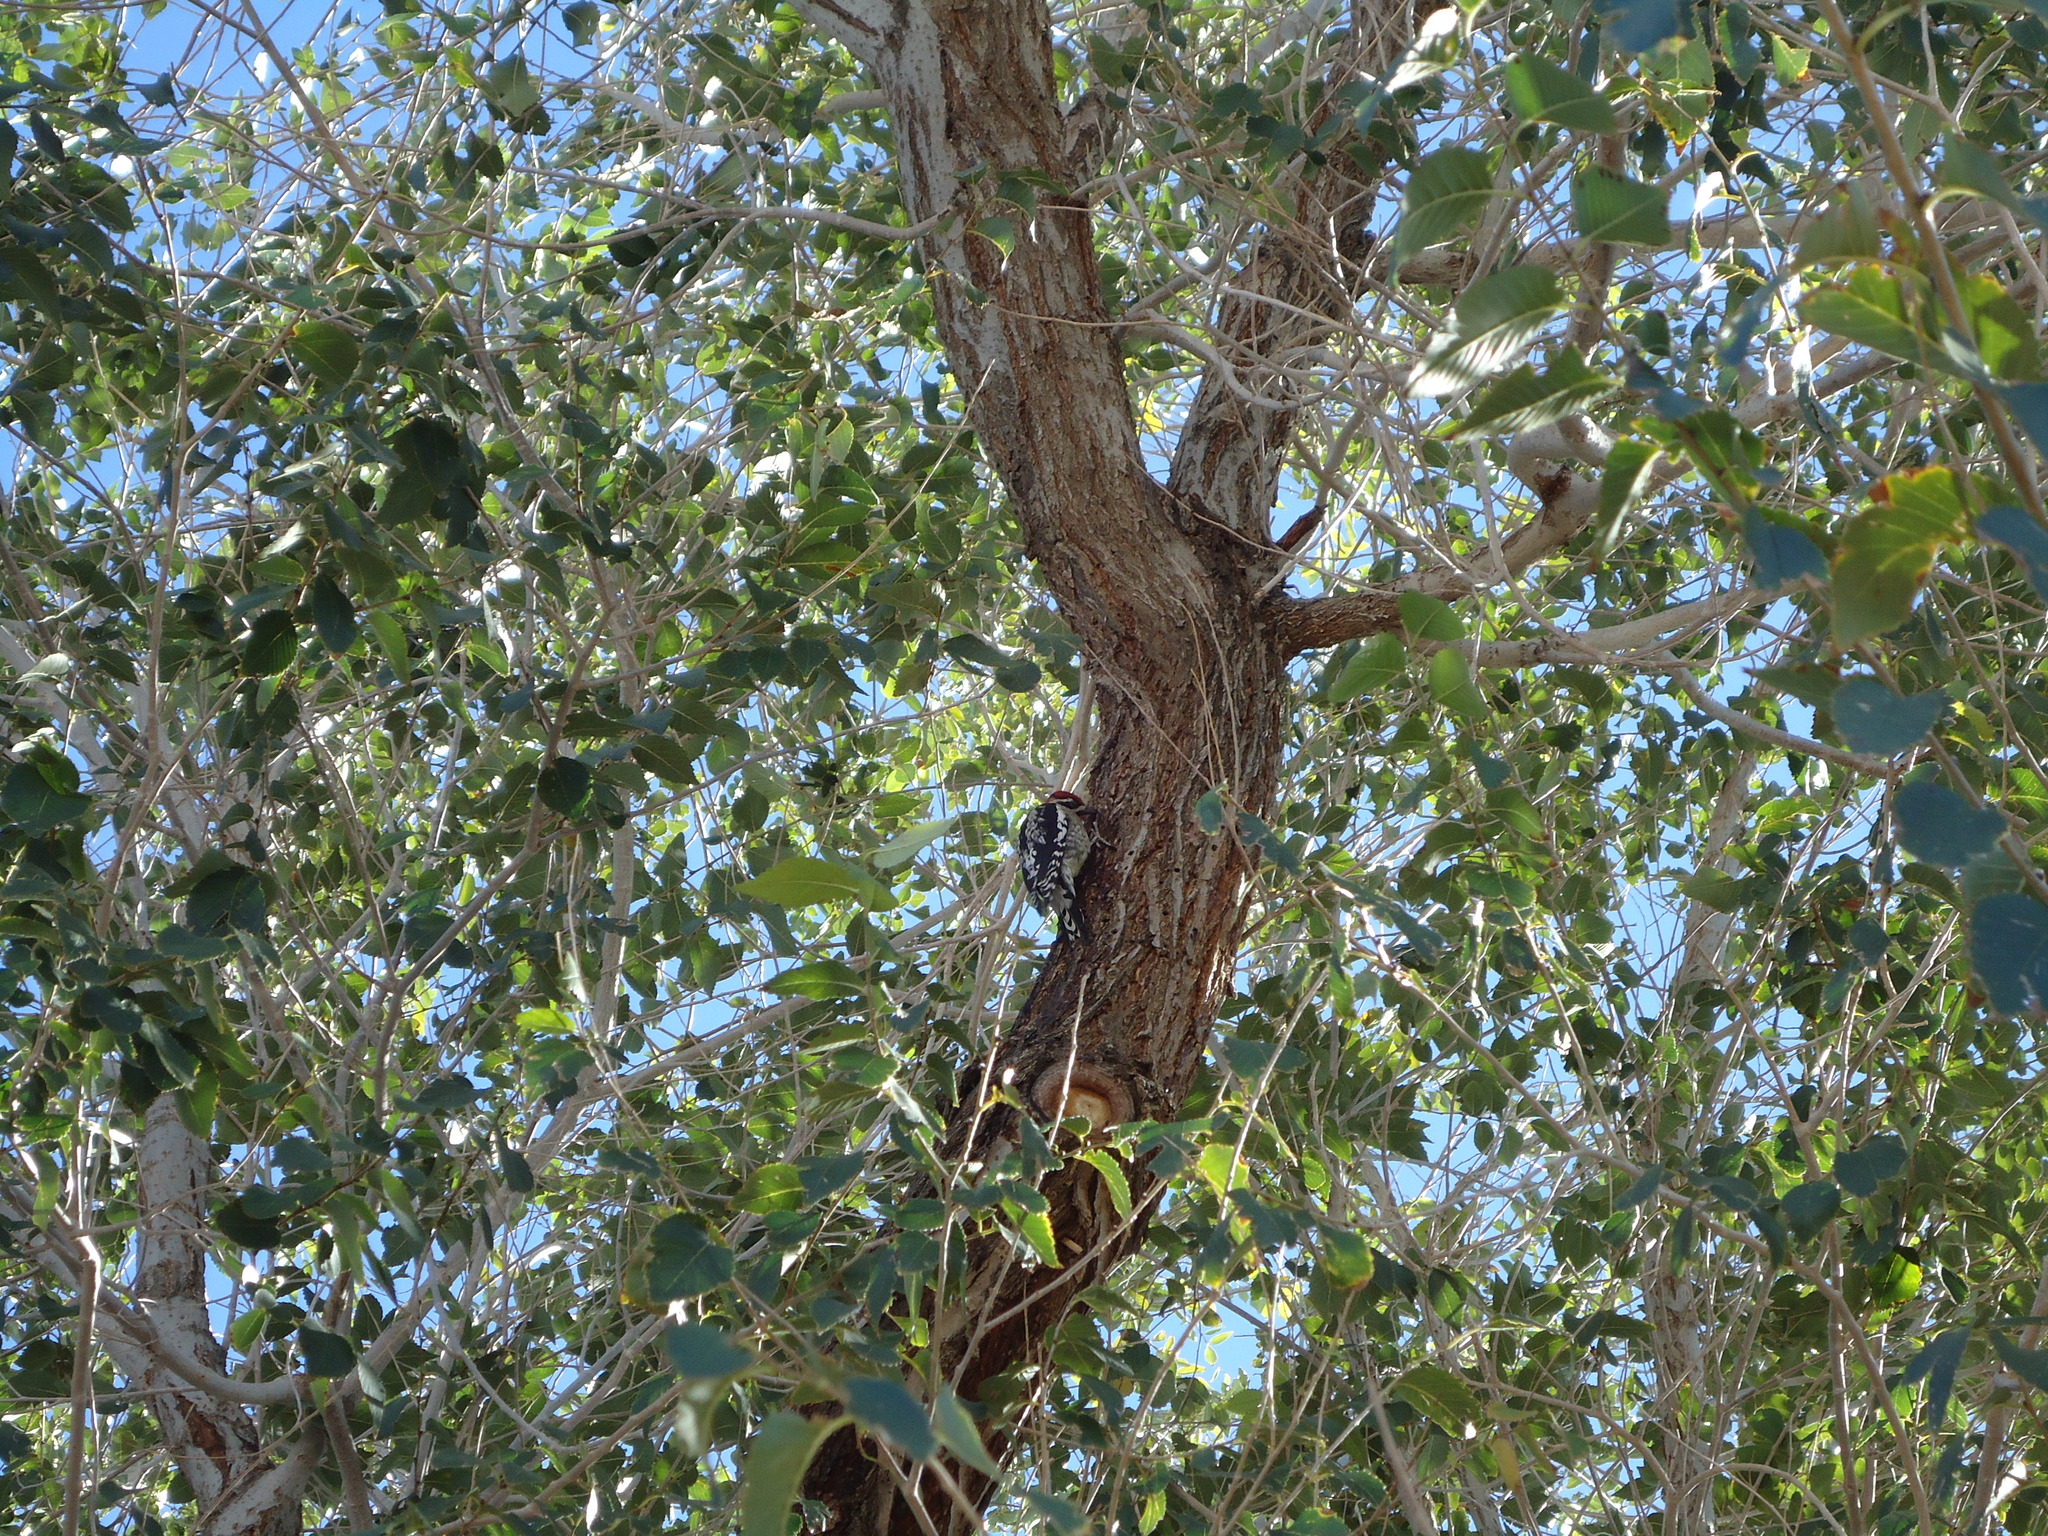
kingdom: Animalia
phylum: Chordata
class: Aves
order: Piciformes
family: Picidae
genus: Sphyrapicus
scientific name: Sphyrapicus nuchalis
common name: Red-naped sapsucker
